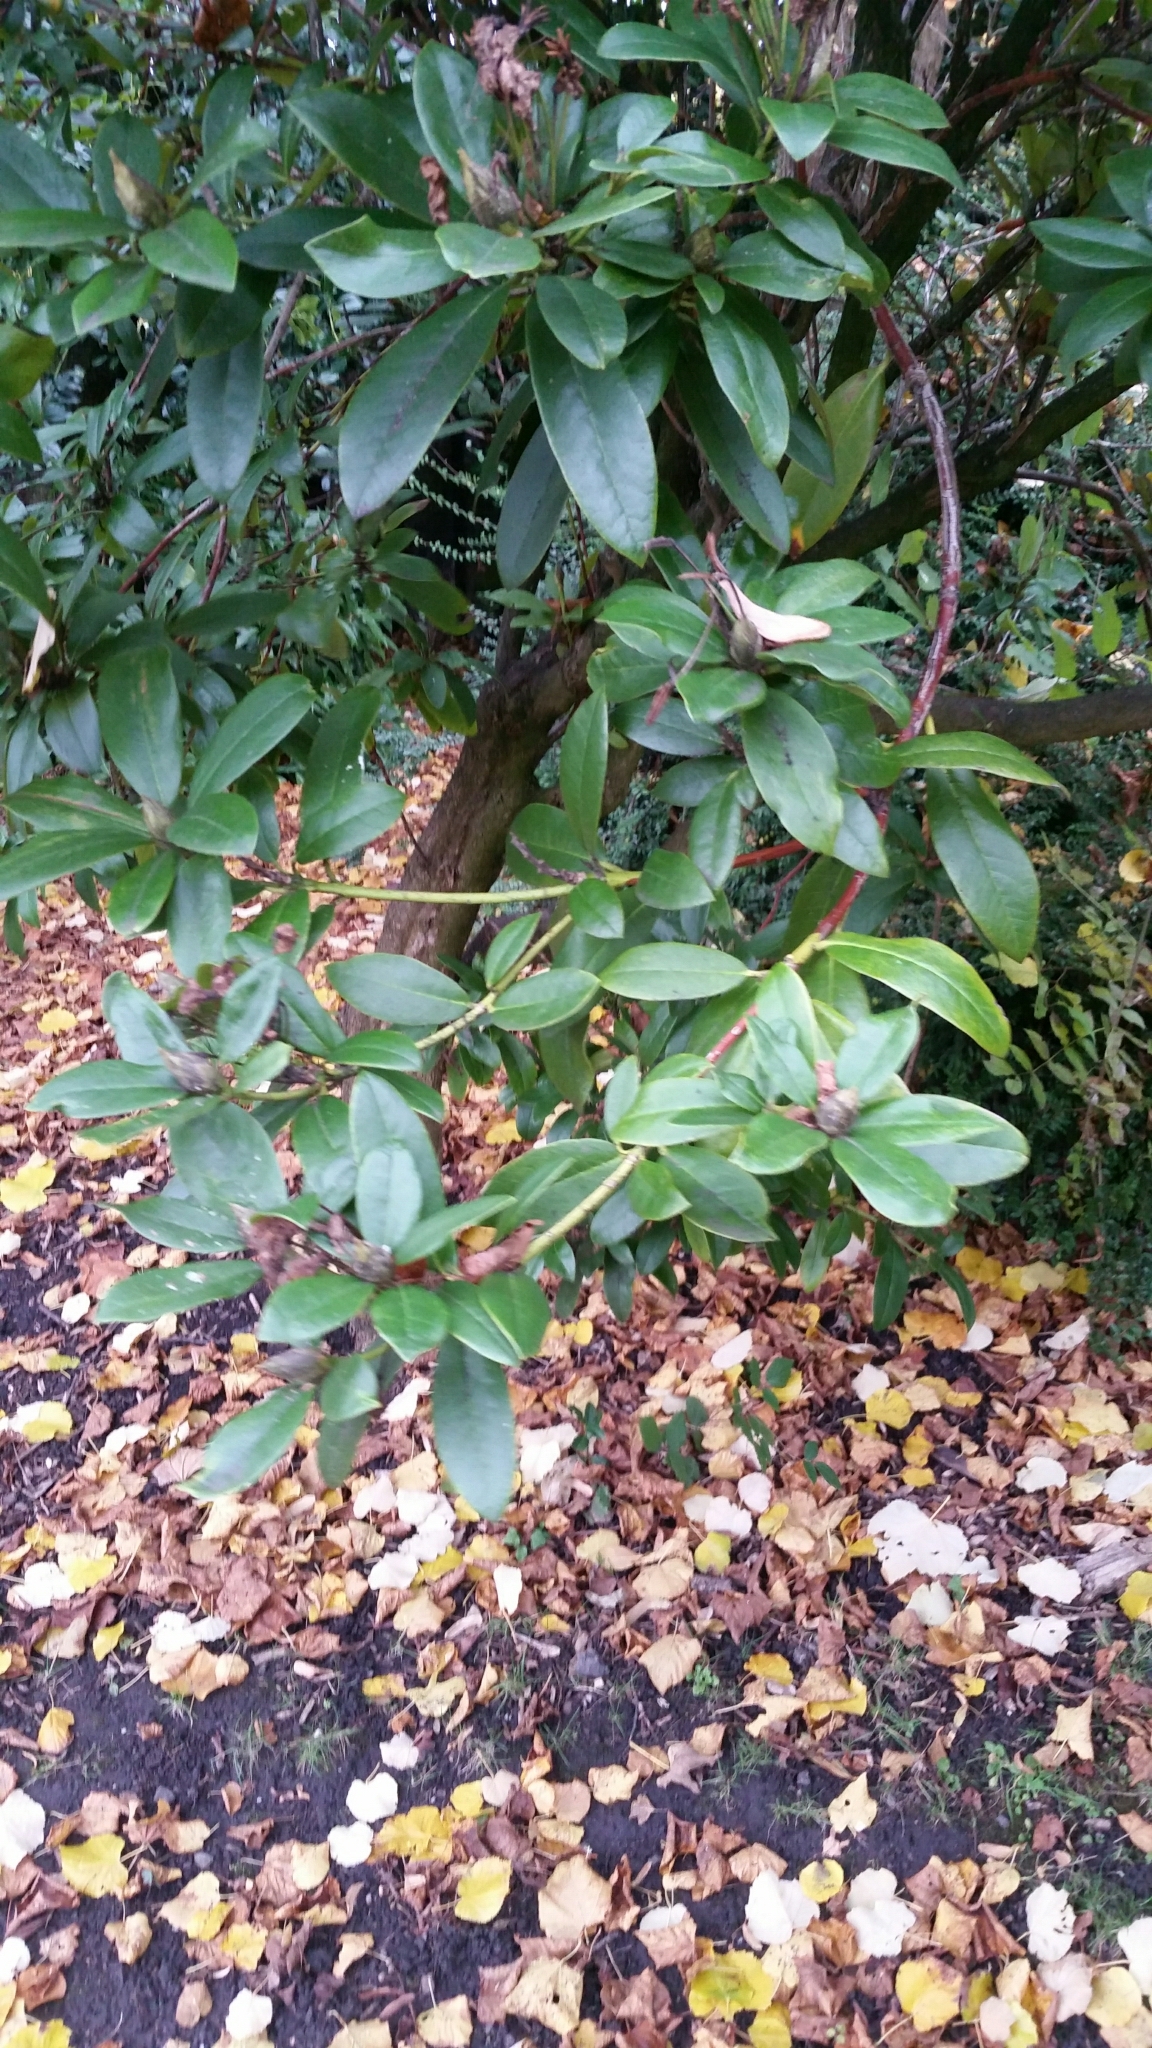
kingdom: Plantae
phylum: Tracheophyta
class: Magnoliopsida
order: Ericales
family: Ericaceae
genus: Rhododendron
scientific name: Rhododendron ponticum
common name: Rhododendron
